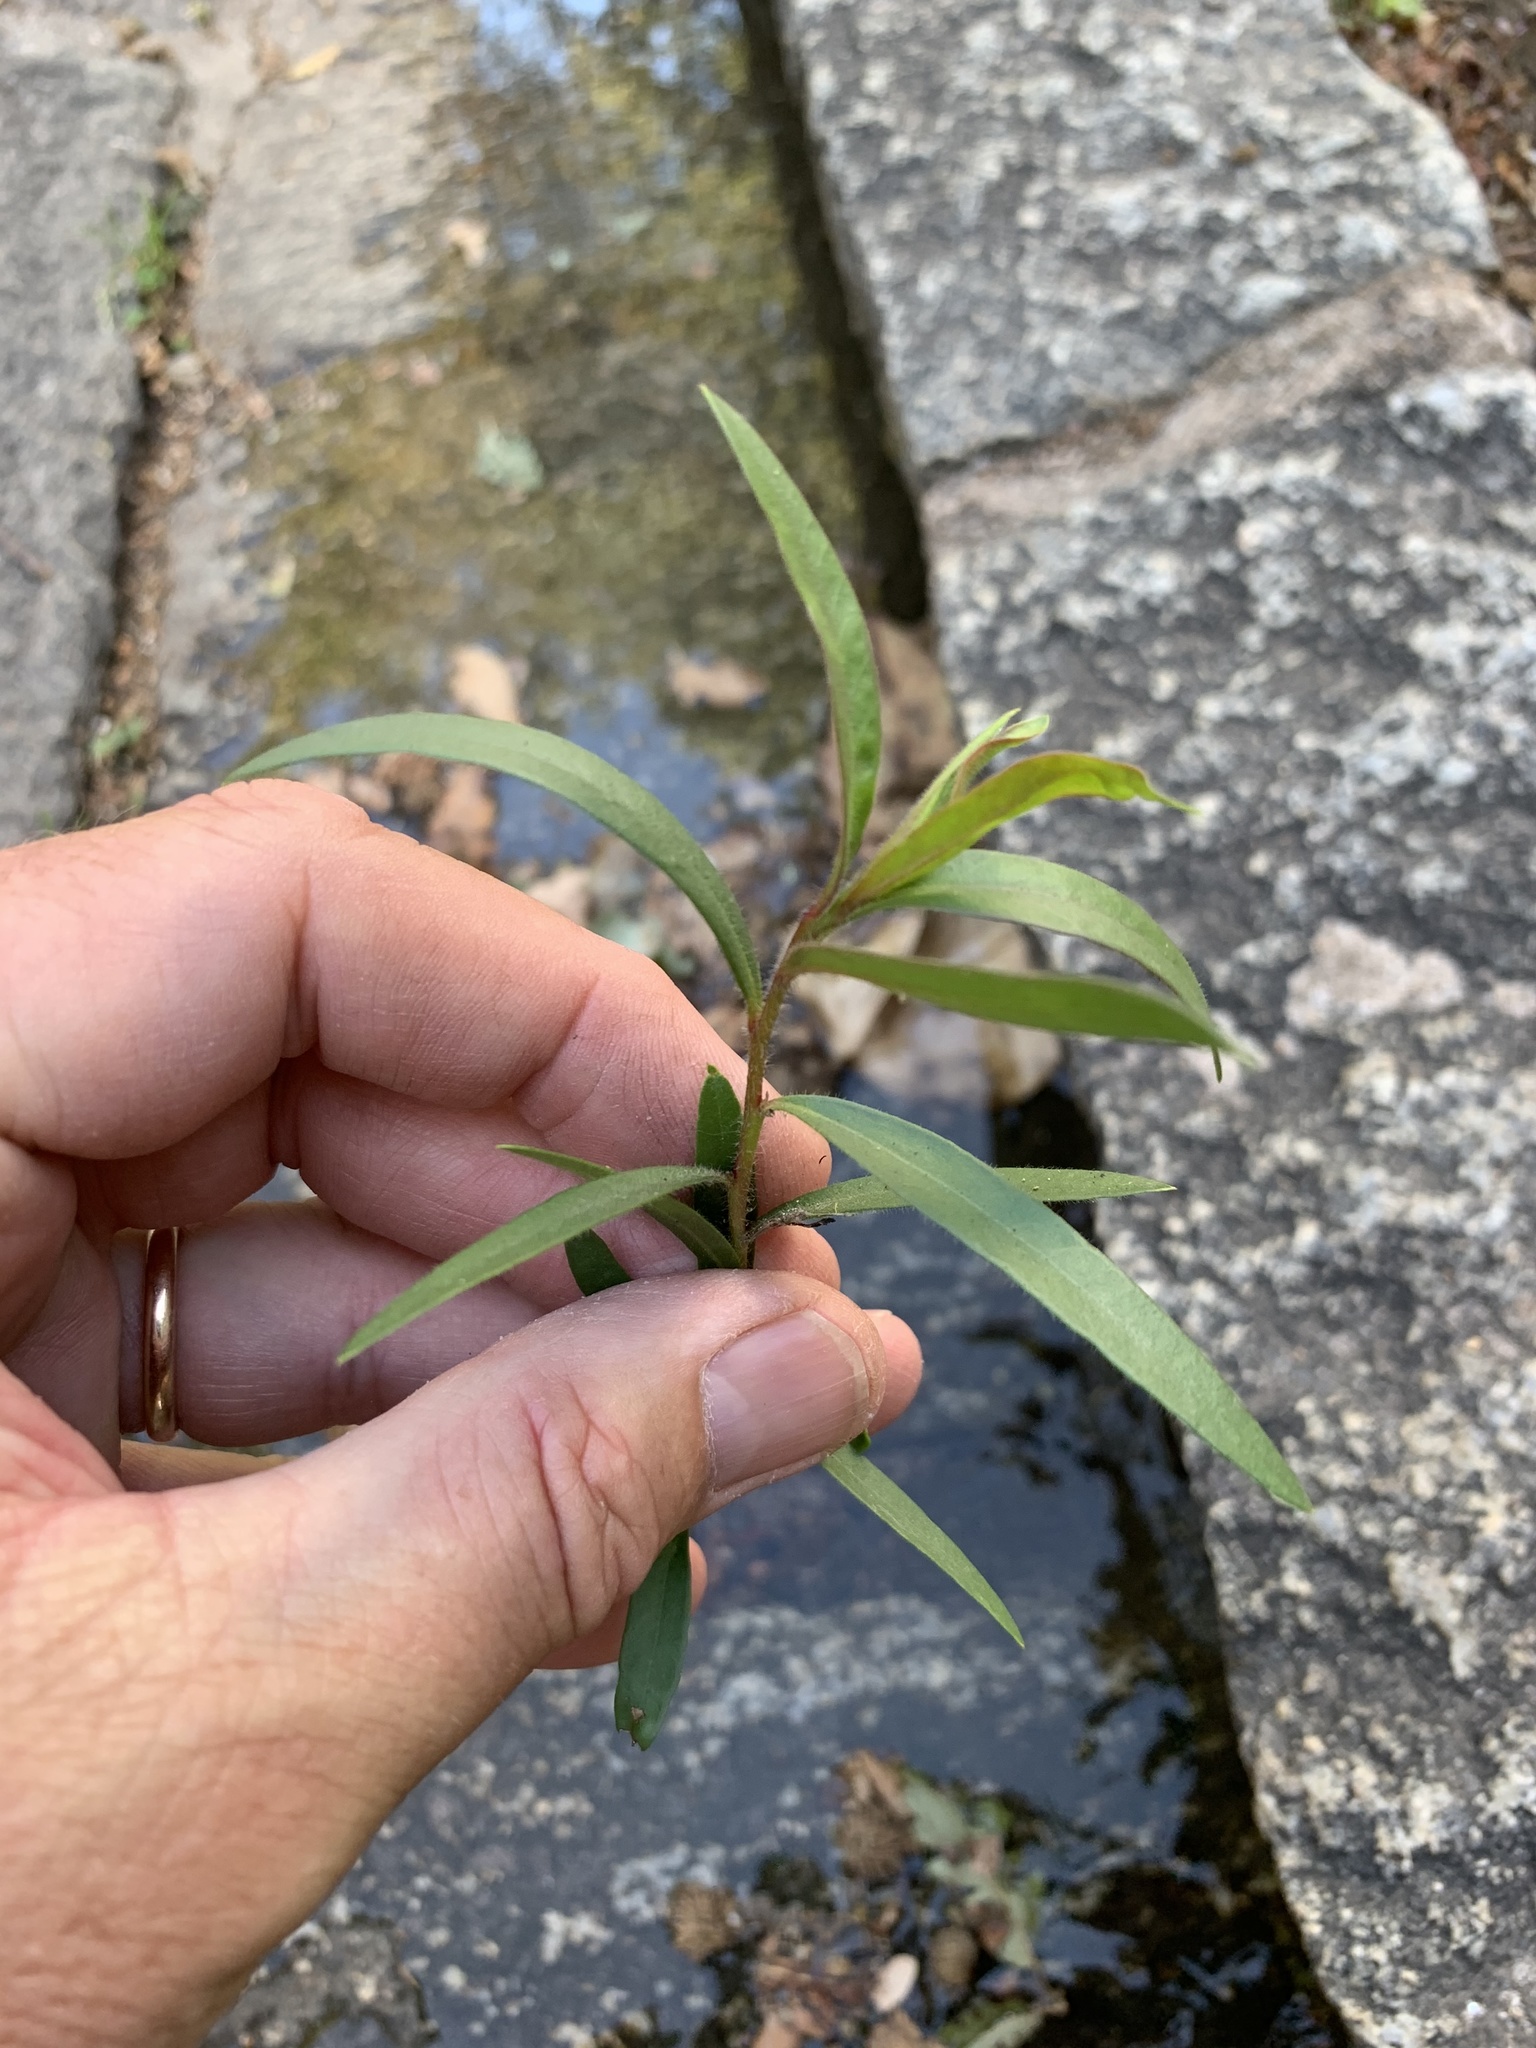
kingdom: Plantae
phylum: Tracheophyta
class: Magnoliopsida
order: Myrtales
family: Myrtaceae
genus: Callistemon
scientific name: Callistemon viminalis
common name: Drooping bottlebrush
